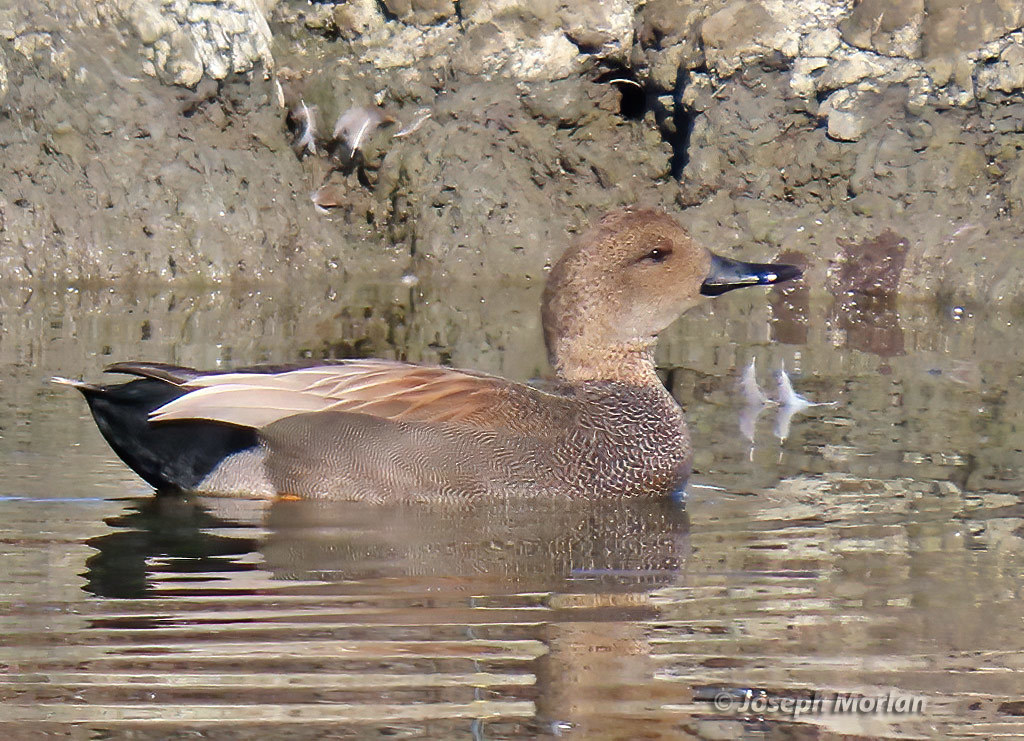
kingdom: Animalia
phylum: Chordata
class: Aves
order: Anseriformes
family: Anatidae
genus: Mareca
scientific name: Mareca strepera
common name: Gadwall
